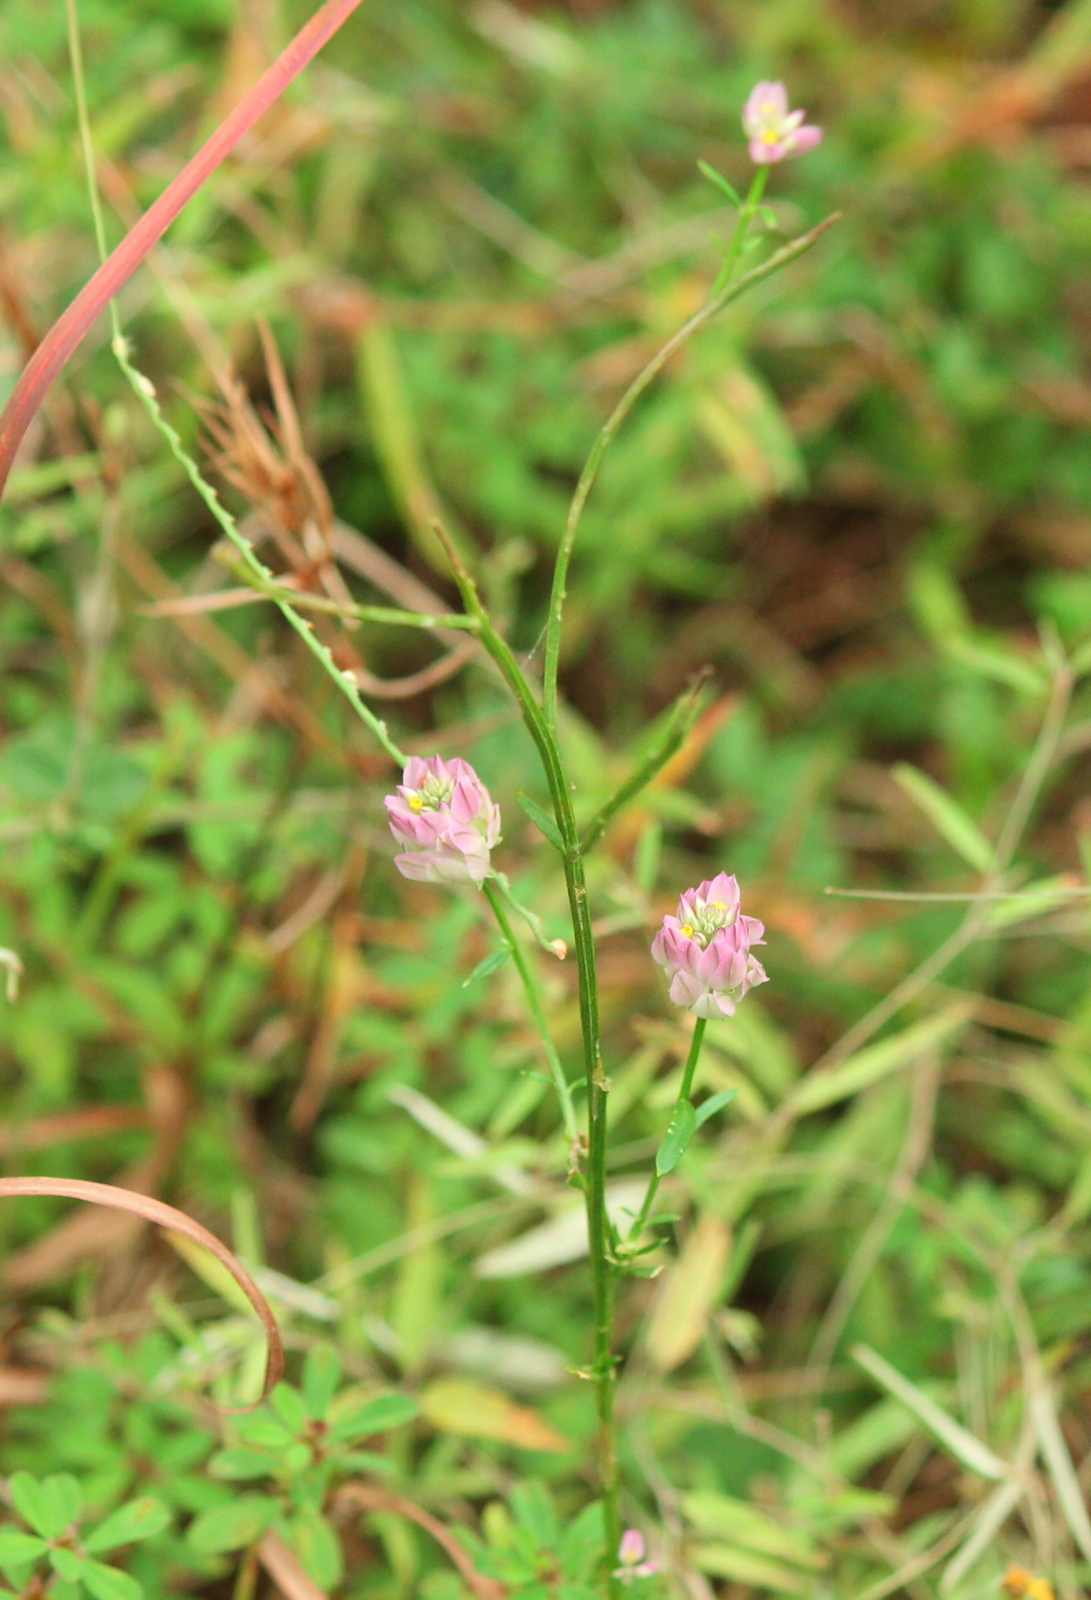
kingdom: Plantae
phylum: Tracheophyta
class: Magnoliopsida
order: Fabales
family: Polygalaceae
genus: Polygala
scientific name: Polygala sanguinea
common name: Blood milkwort
